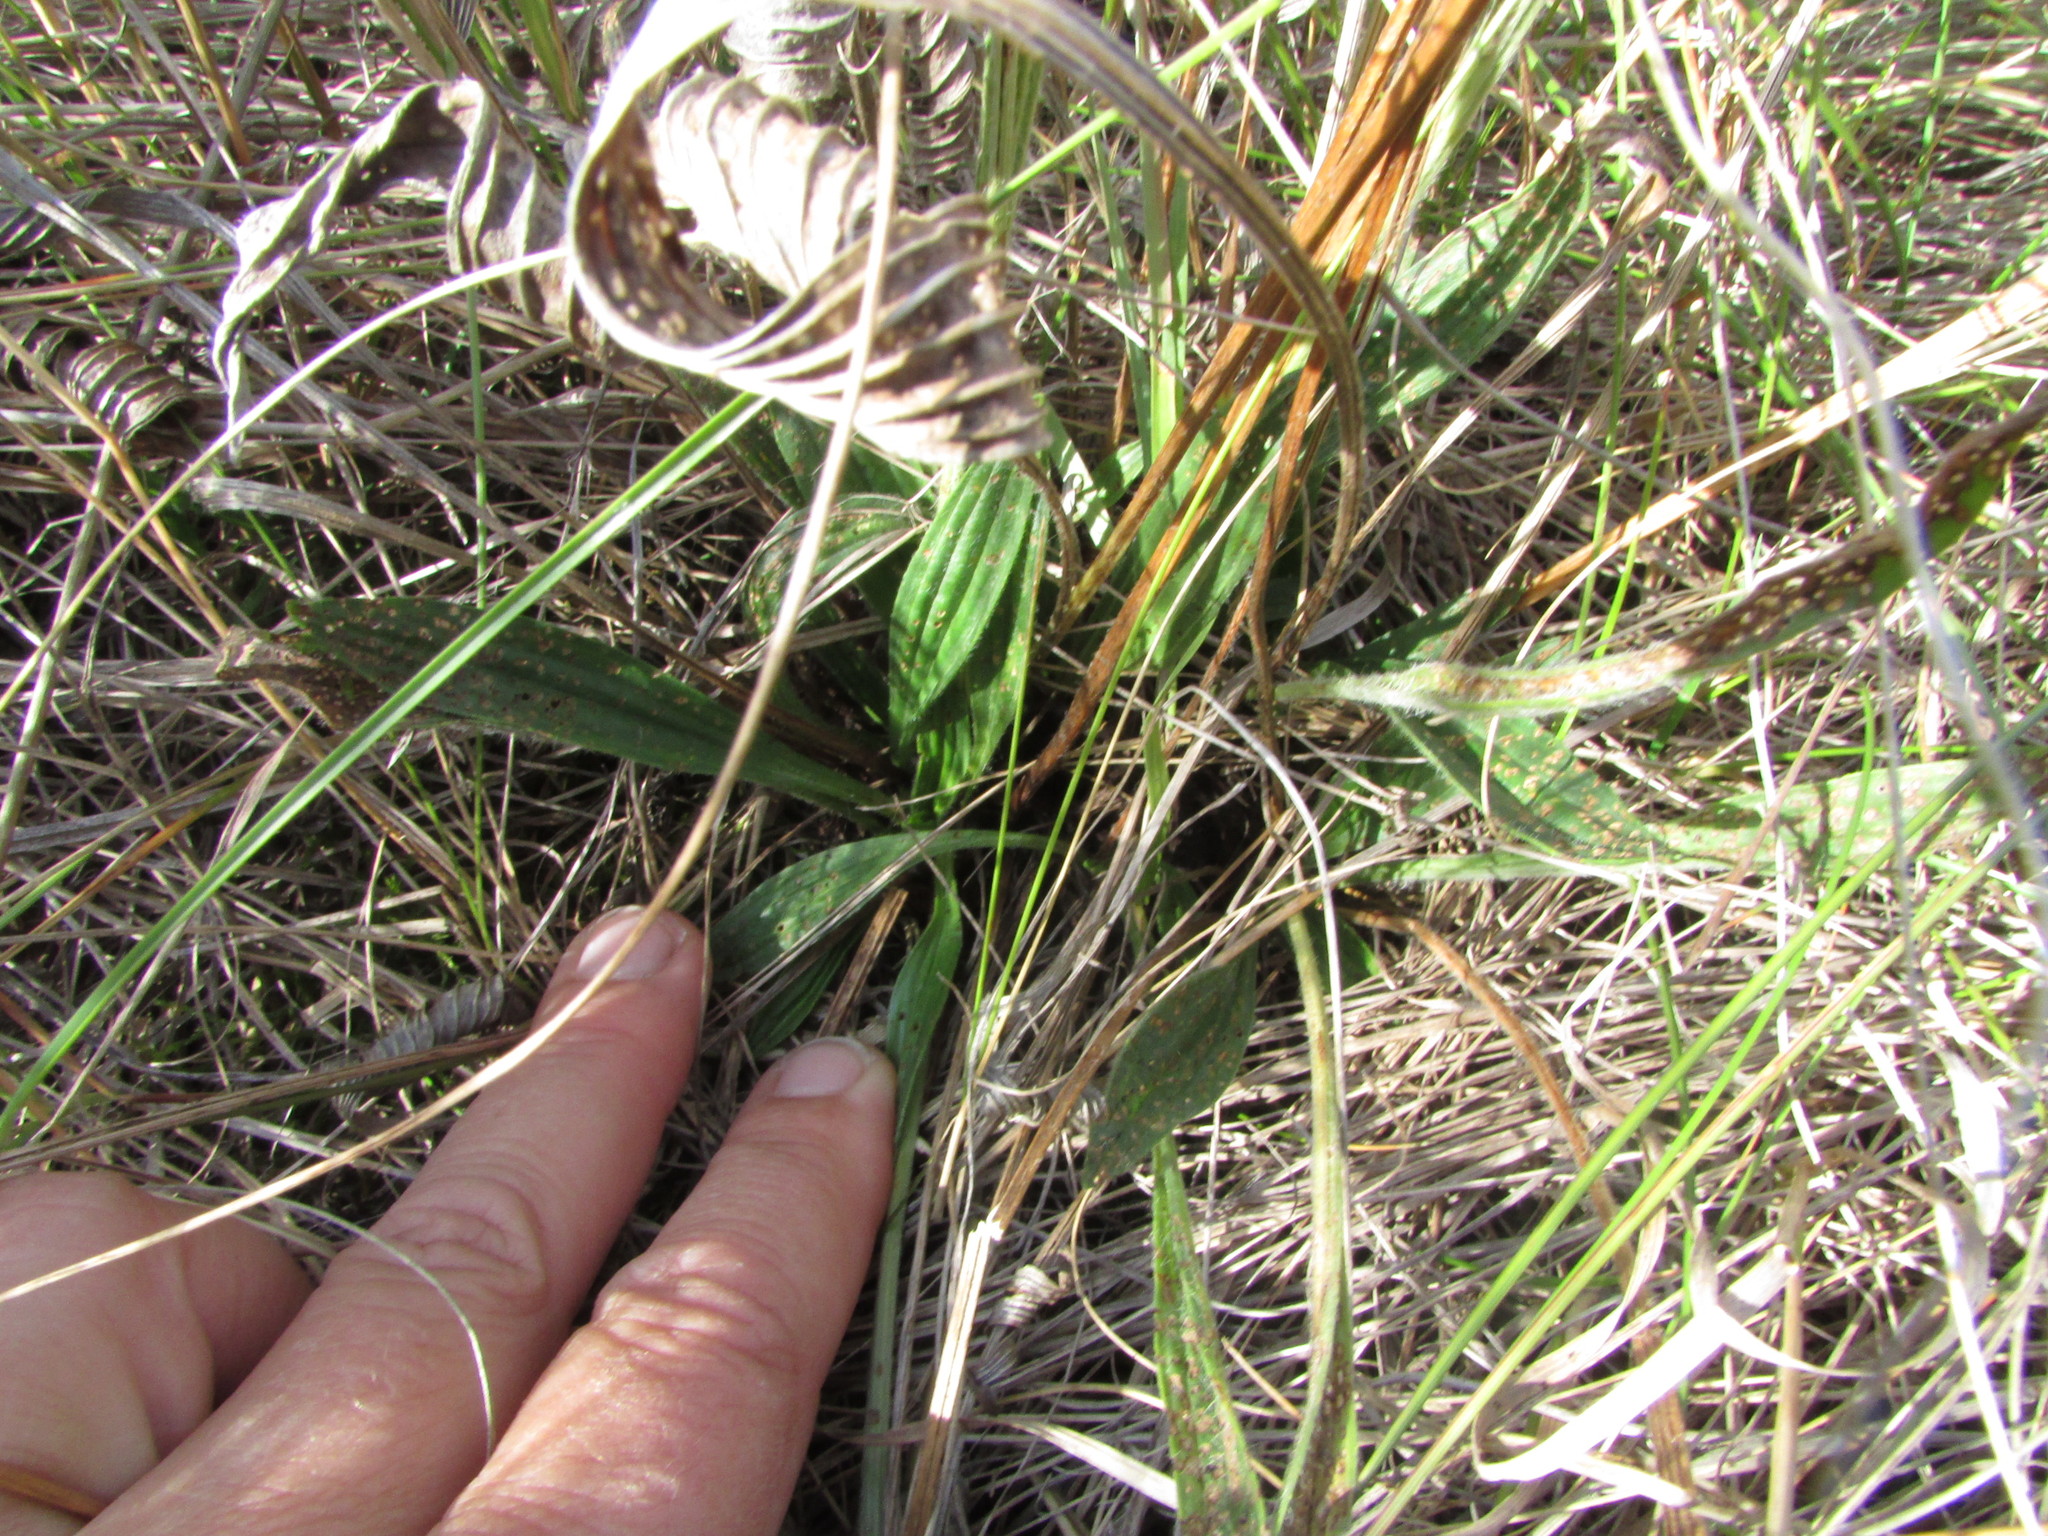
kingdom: Plantae
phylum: Tracheophyta
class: Magnoliopsida
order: Lamiales
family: Plantaginaceae
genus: Plantago
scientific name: Plantago urvillei
